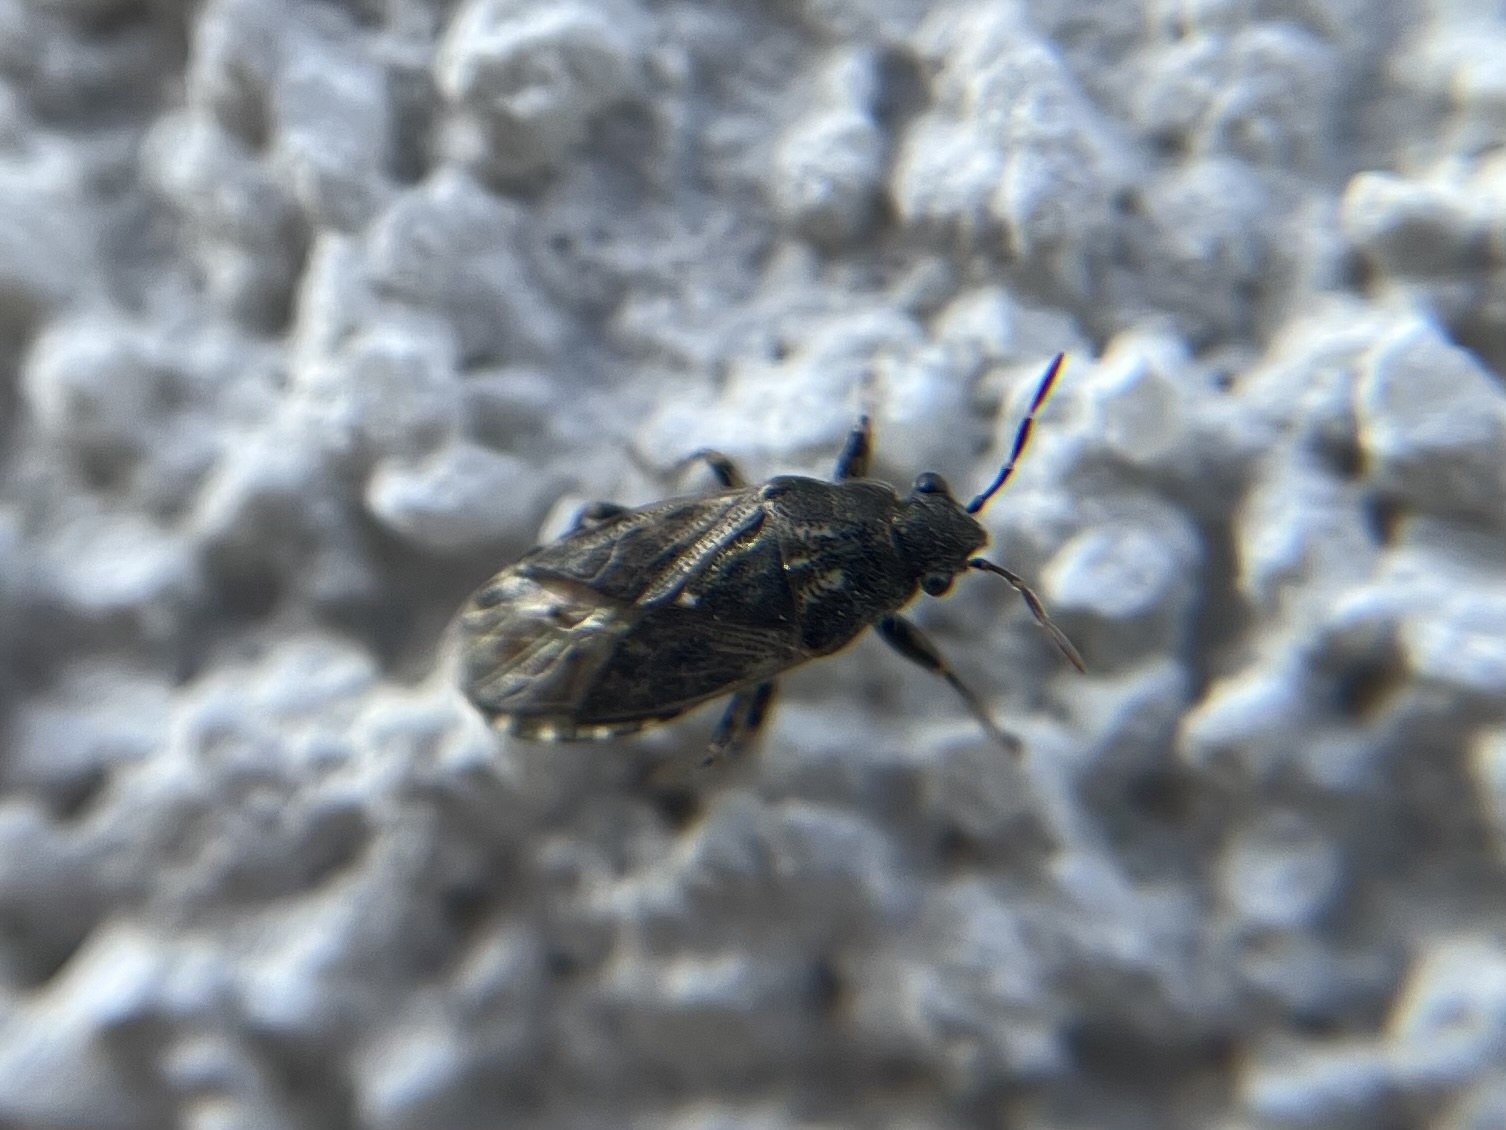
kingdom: Animalia
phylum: Arthropoda
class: Insecta
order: Hemiptera
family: Heterogastridae
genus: Heterogaster
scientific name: Heterogaster urticae
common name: Seed bug
